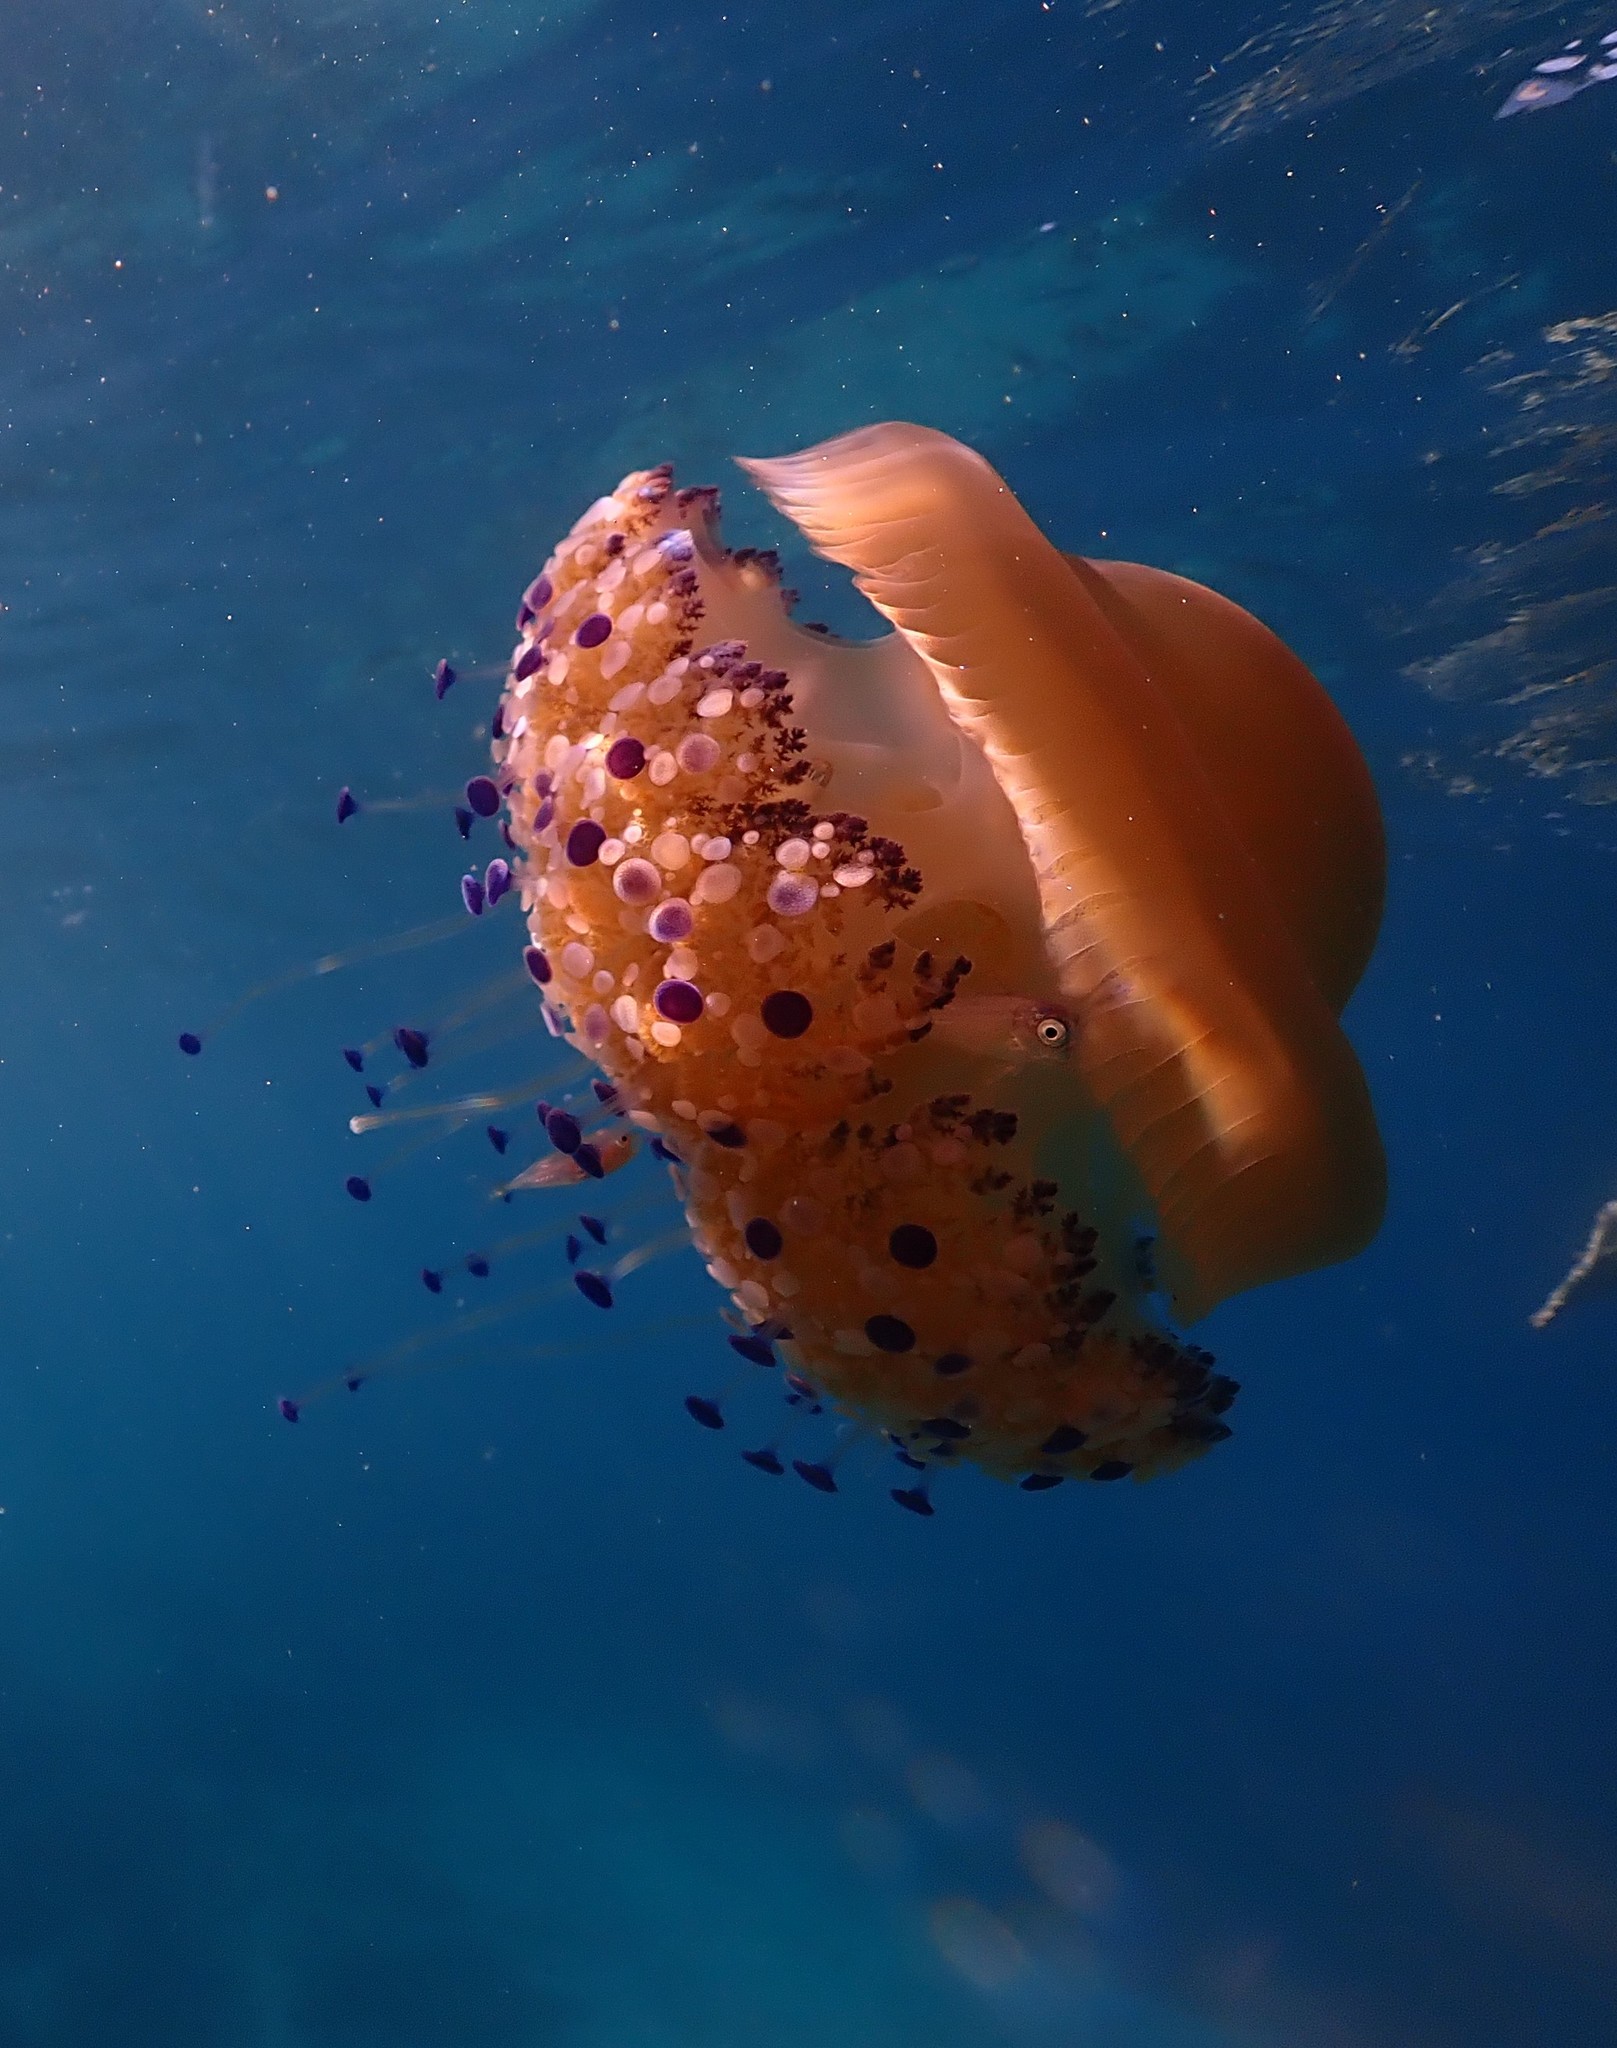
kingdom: Animalia
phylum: Cnidaria
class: Scyphozoa
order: Rhizostomeae
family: Cepheidae
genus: Cotylorhiza
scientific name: Cotylorhiza tuberculata
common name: Mediterranean jelly
